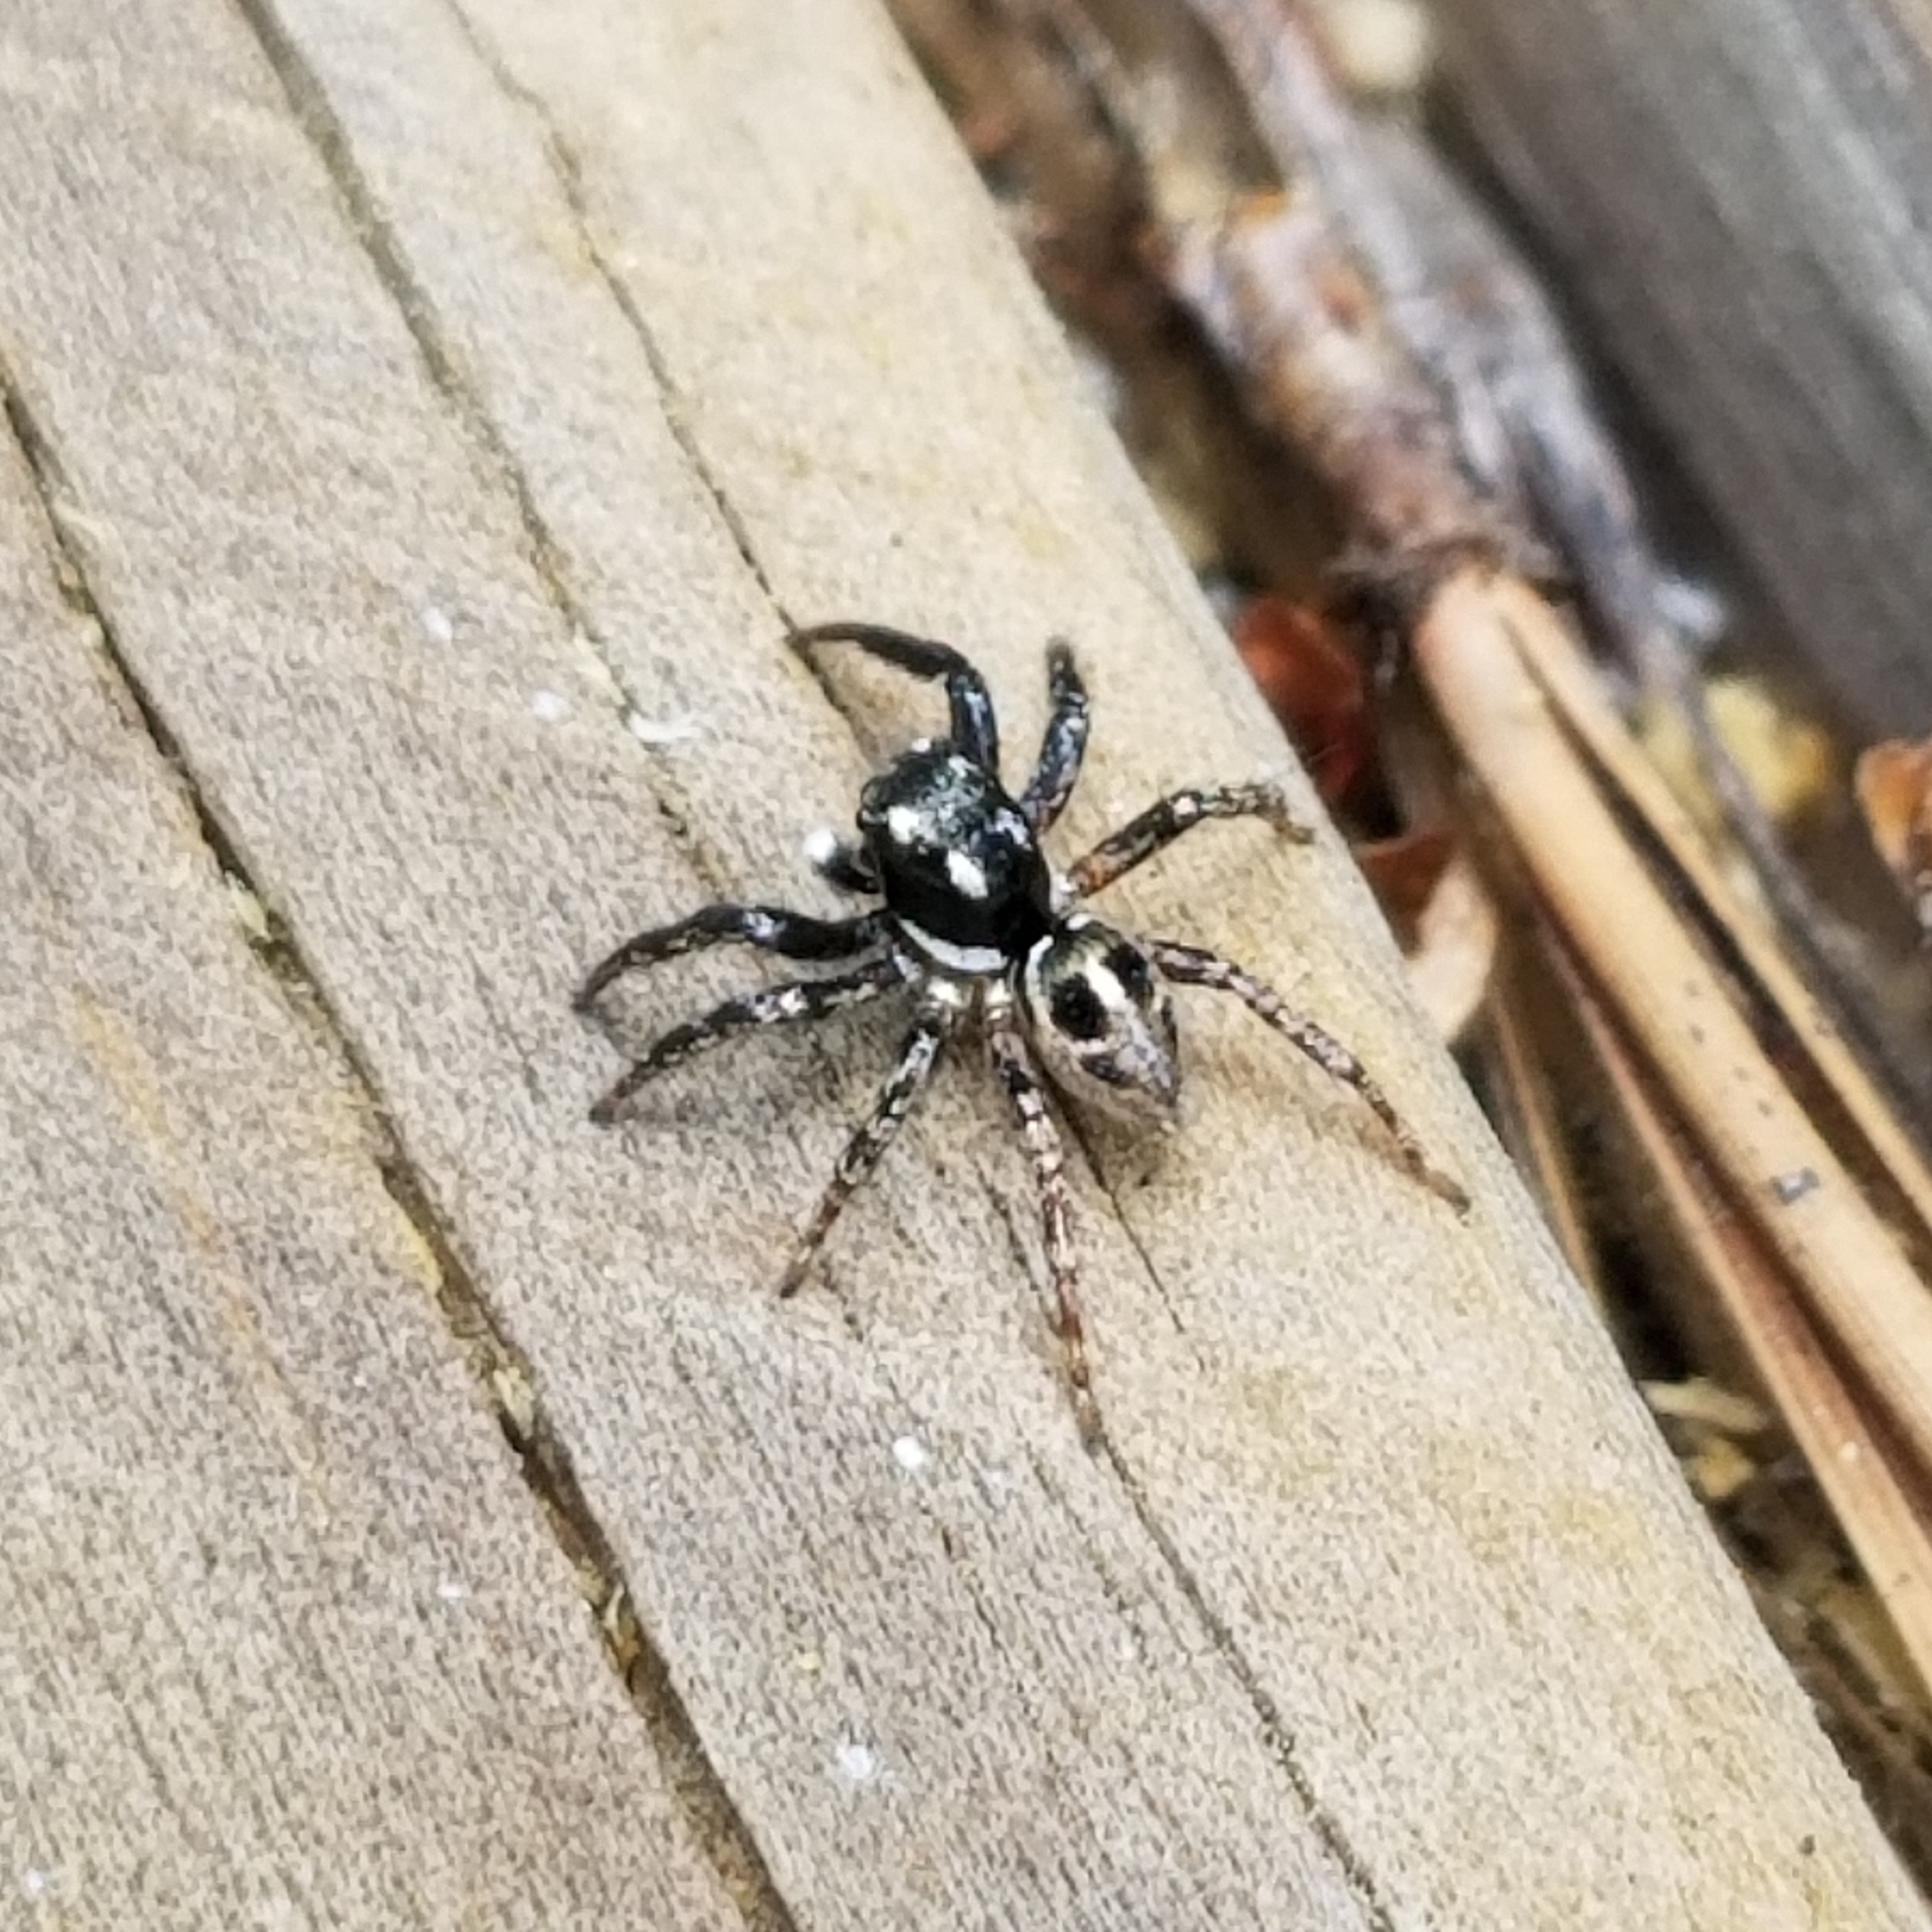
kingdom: Animalia
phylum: Arthropoda
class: Arachnida
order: Araneae
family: Salticidae
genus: Anasaitis
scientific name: Anasaitis canosa
